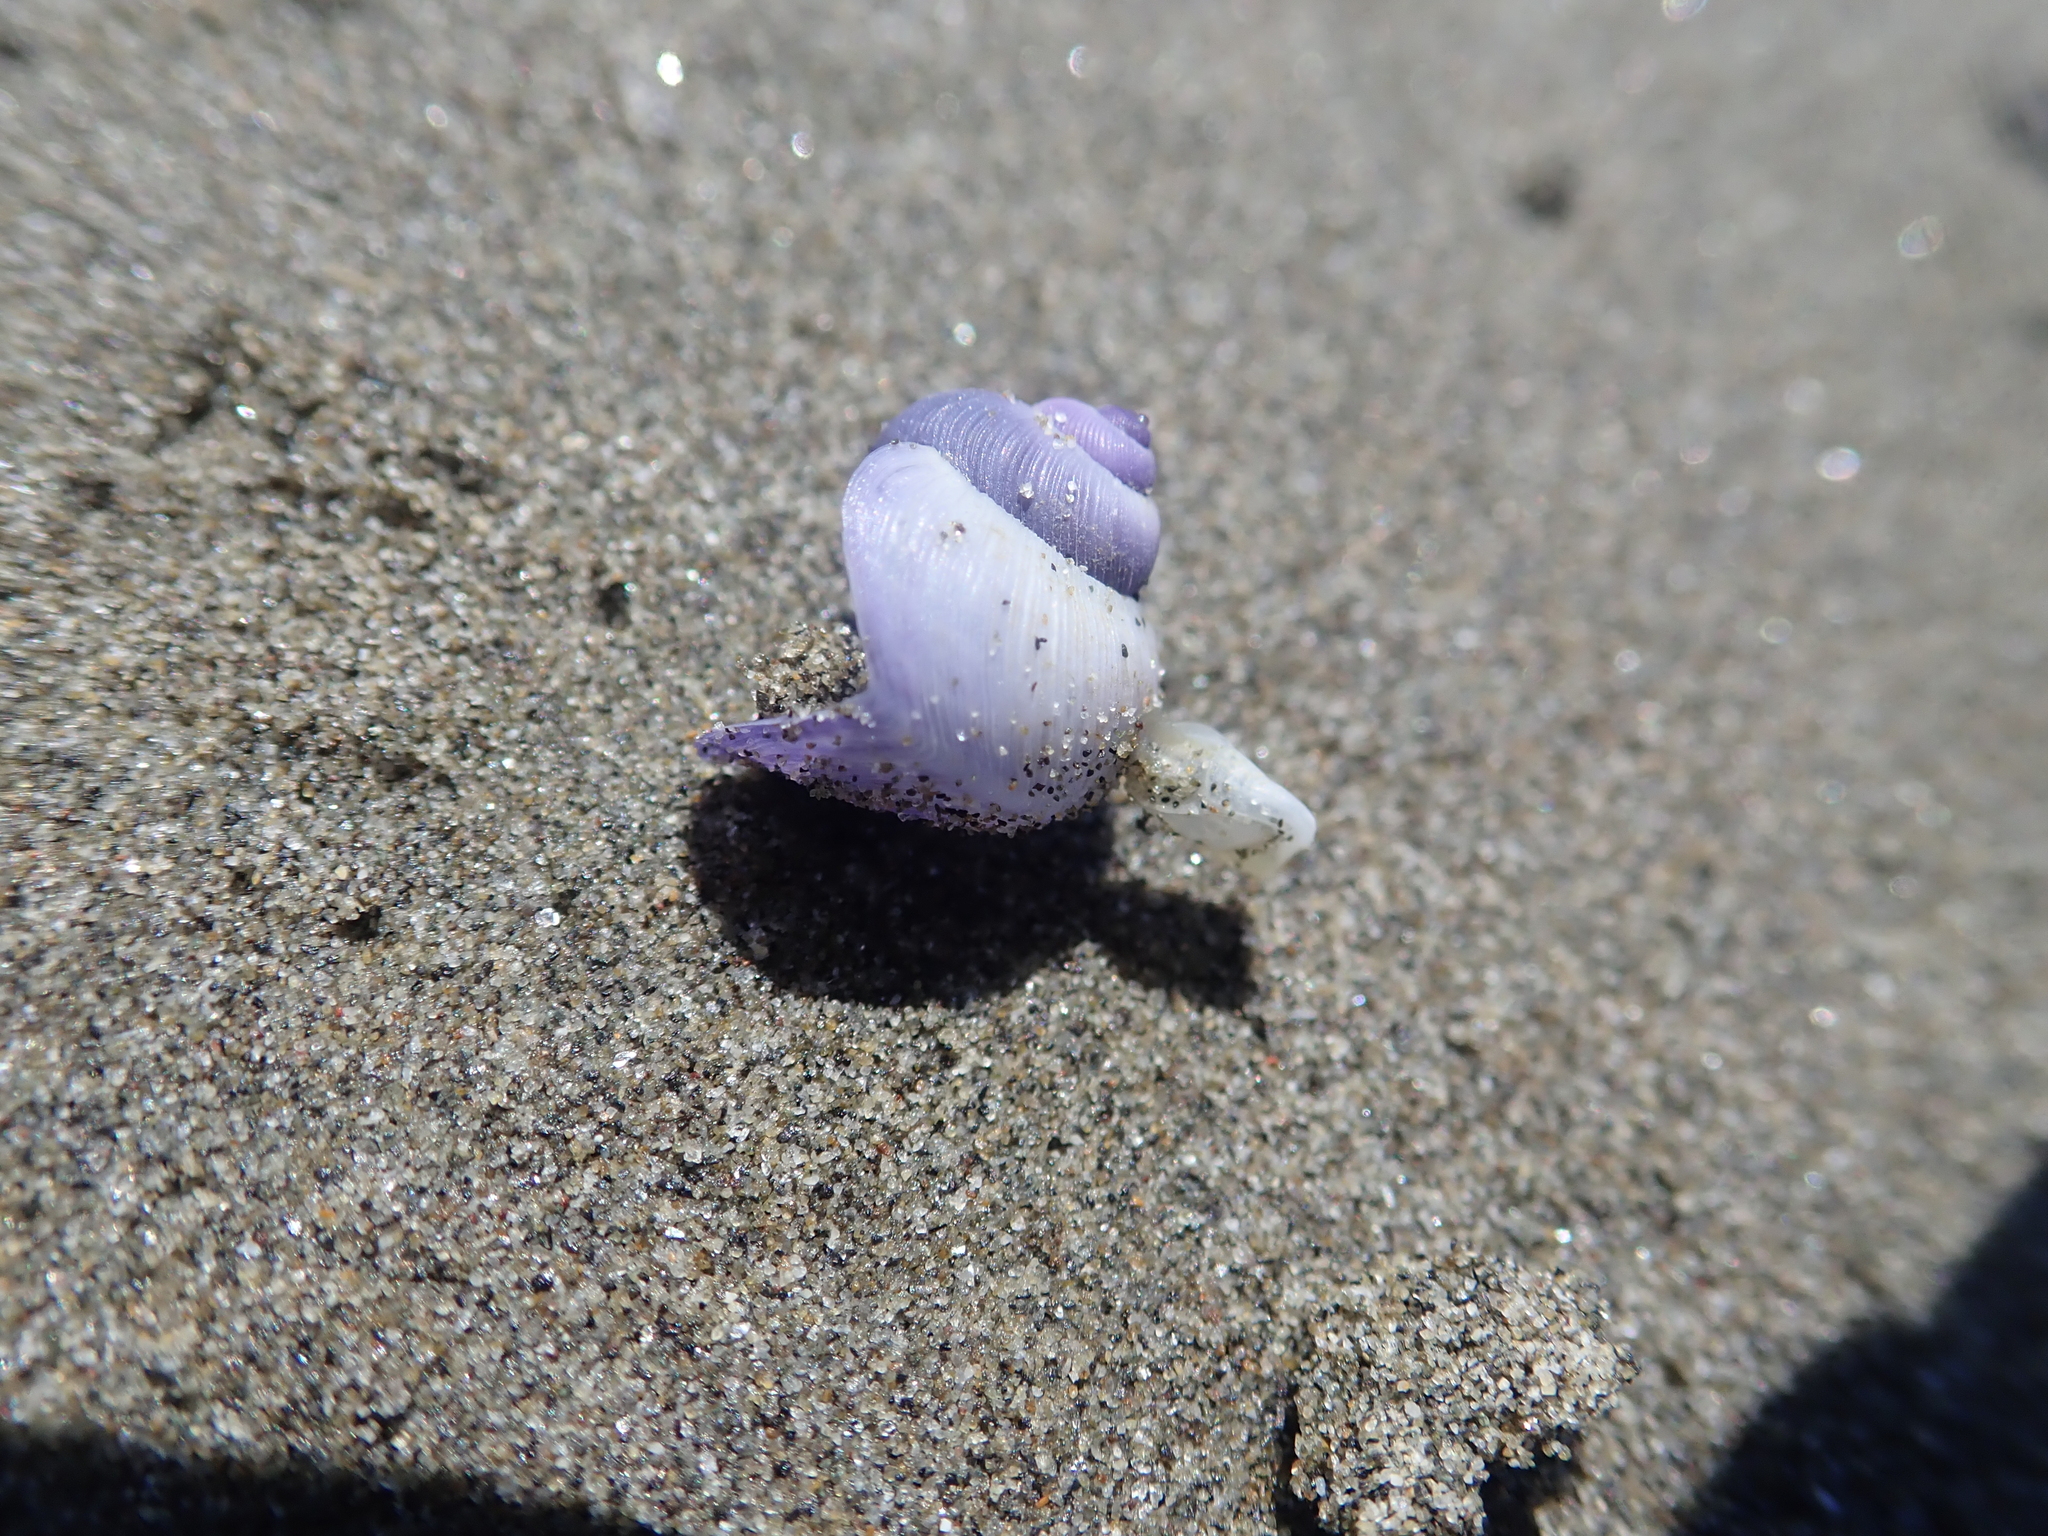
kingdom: Animalia
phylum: Mollusca
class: Gastropoda
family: Epitoniidae
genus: Janthina
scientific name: Janthina exigua
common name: Dwarf janthina
